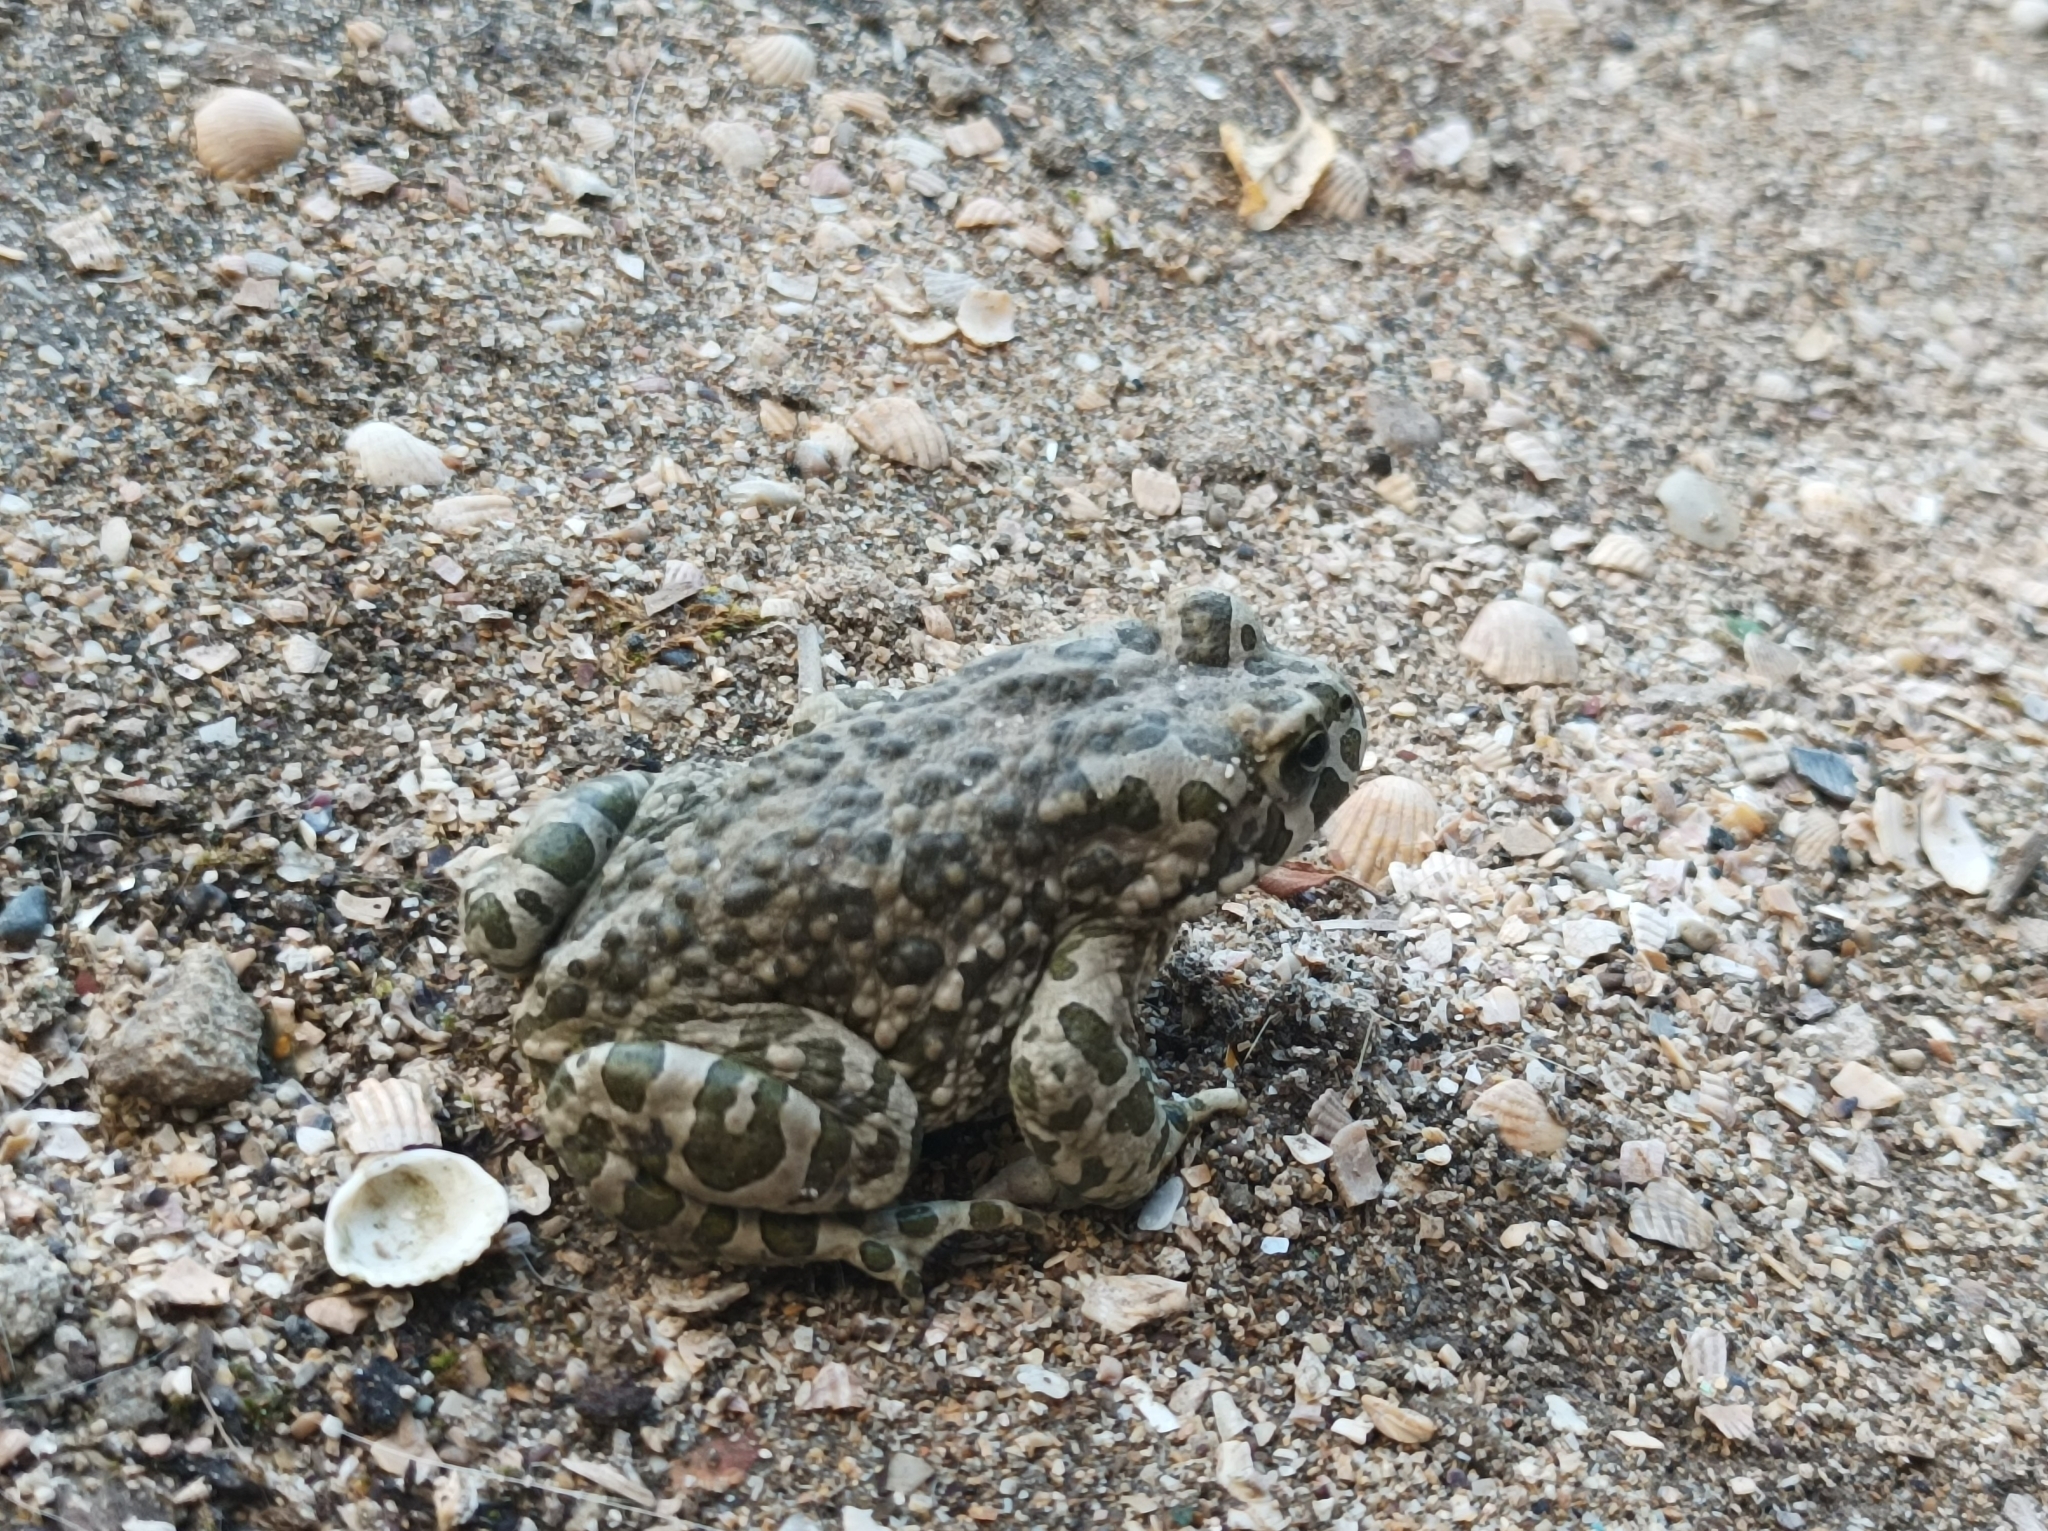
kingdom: Animalia
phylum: Chordata
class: Amphibia
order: Anura
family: Bufonidae
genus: Bufotes
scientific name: Bufotes viridis
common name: European green toad
